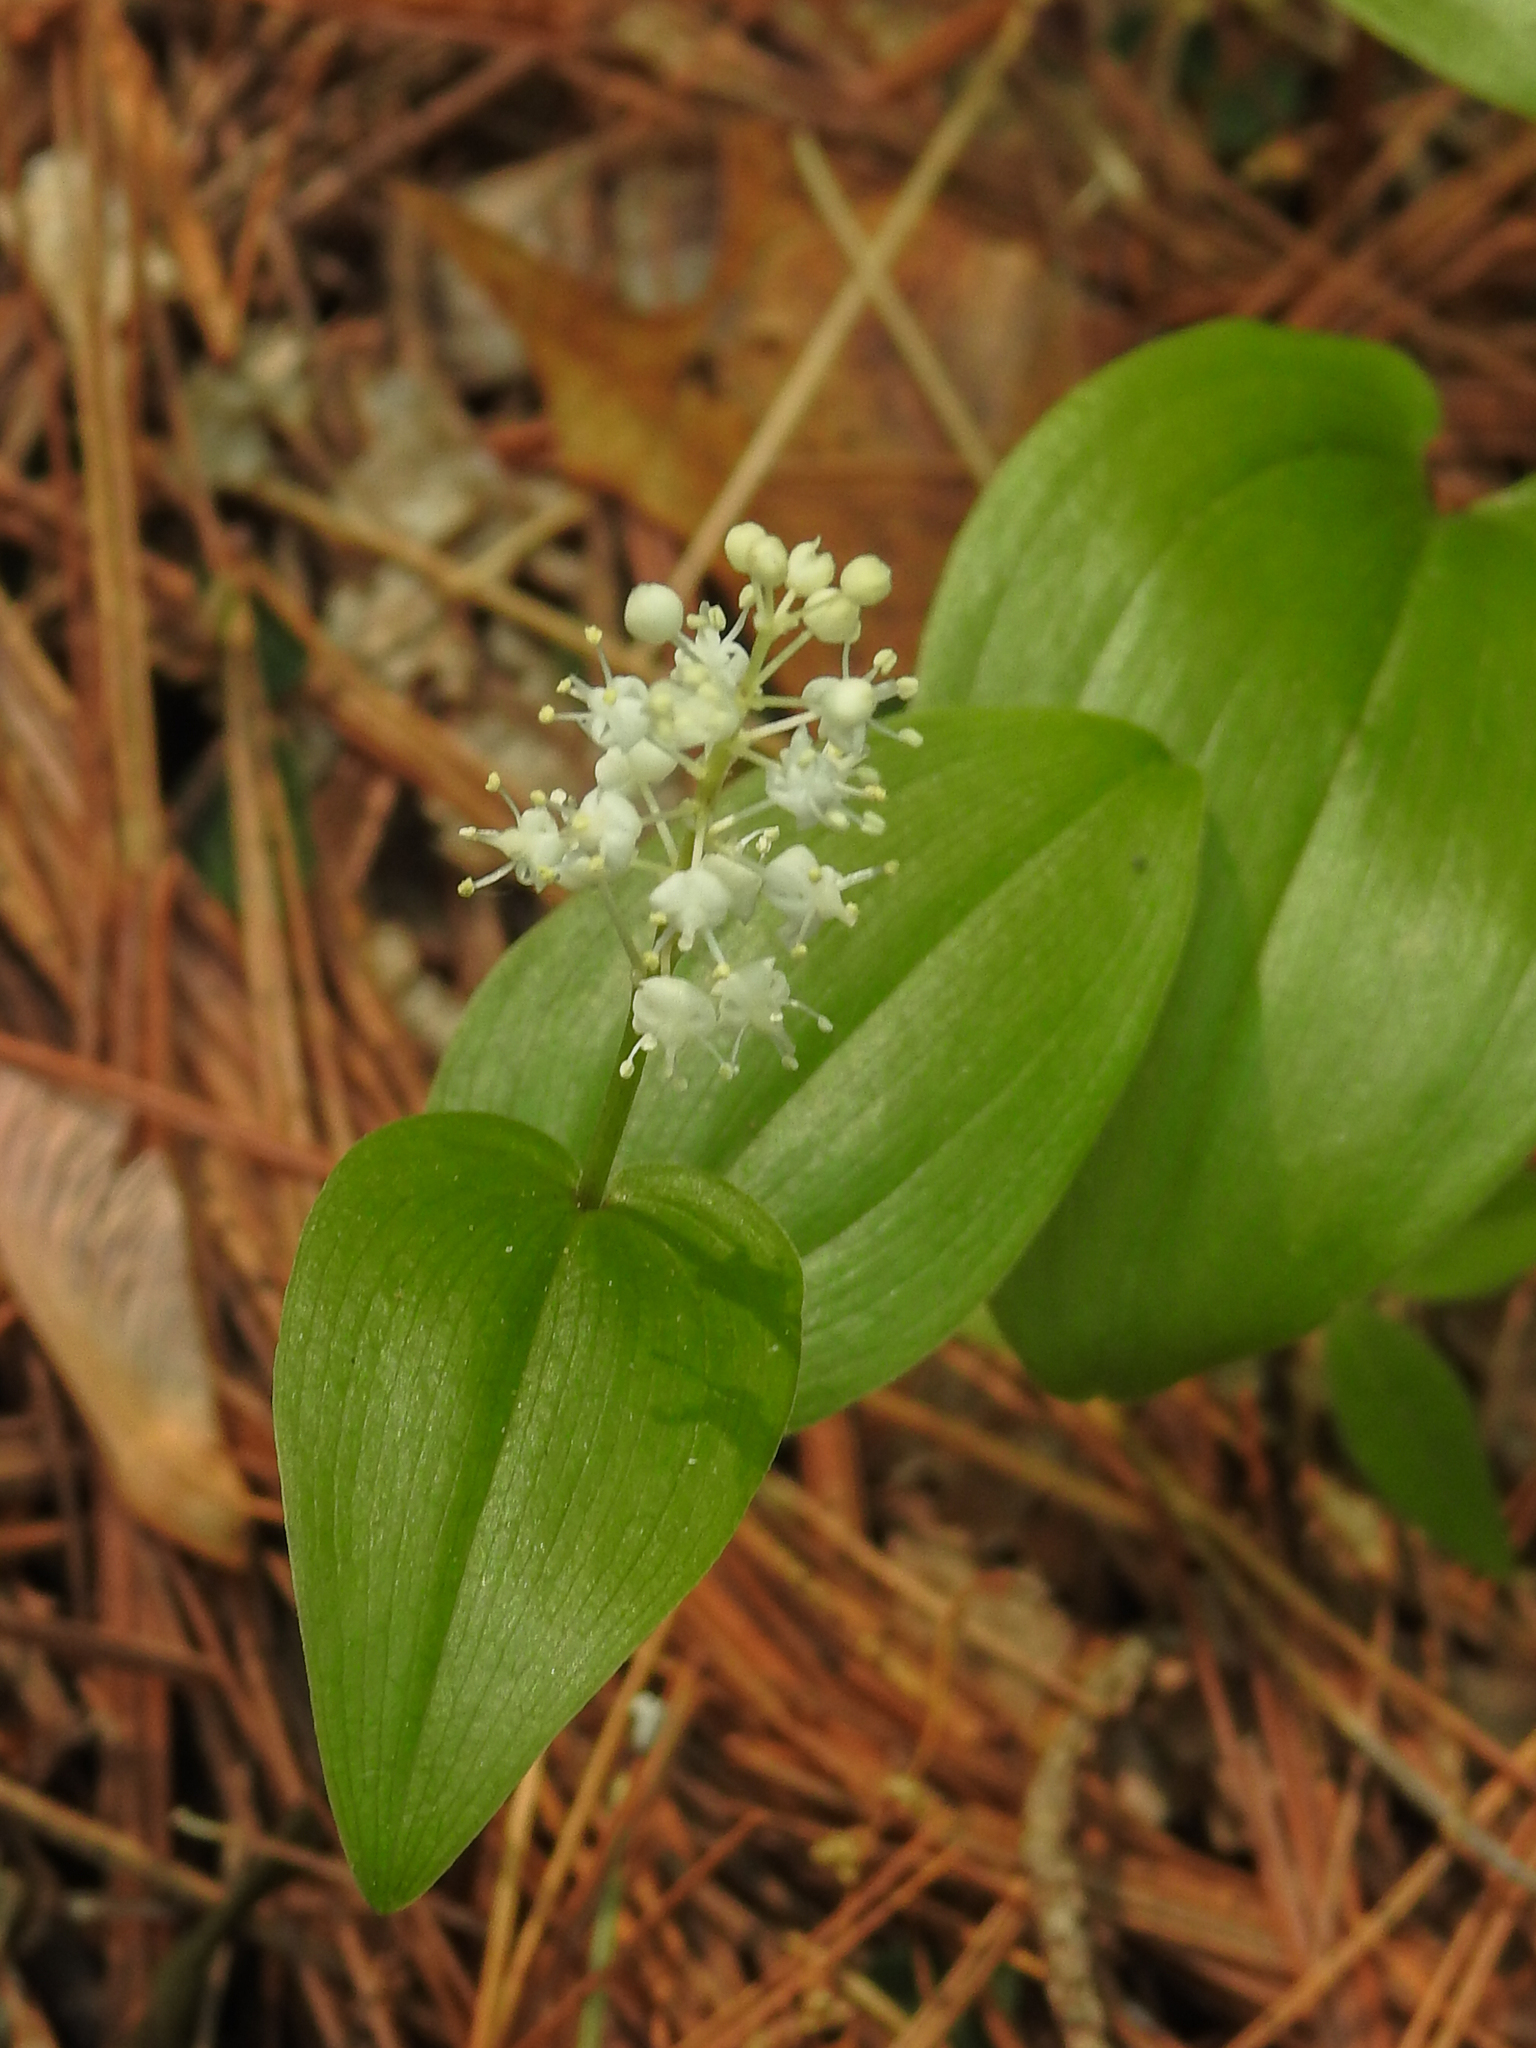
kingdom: Plantae
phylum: Tracheophyta
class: Liliopsida
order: Asparagales
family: Asparagaceae
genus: Maianthemum
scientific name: Maianthemum canadense
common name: False lily-of-the-valley
